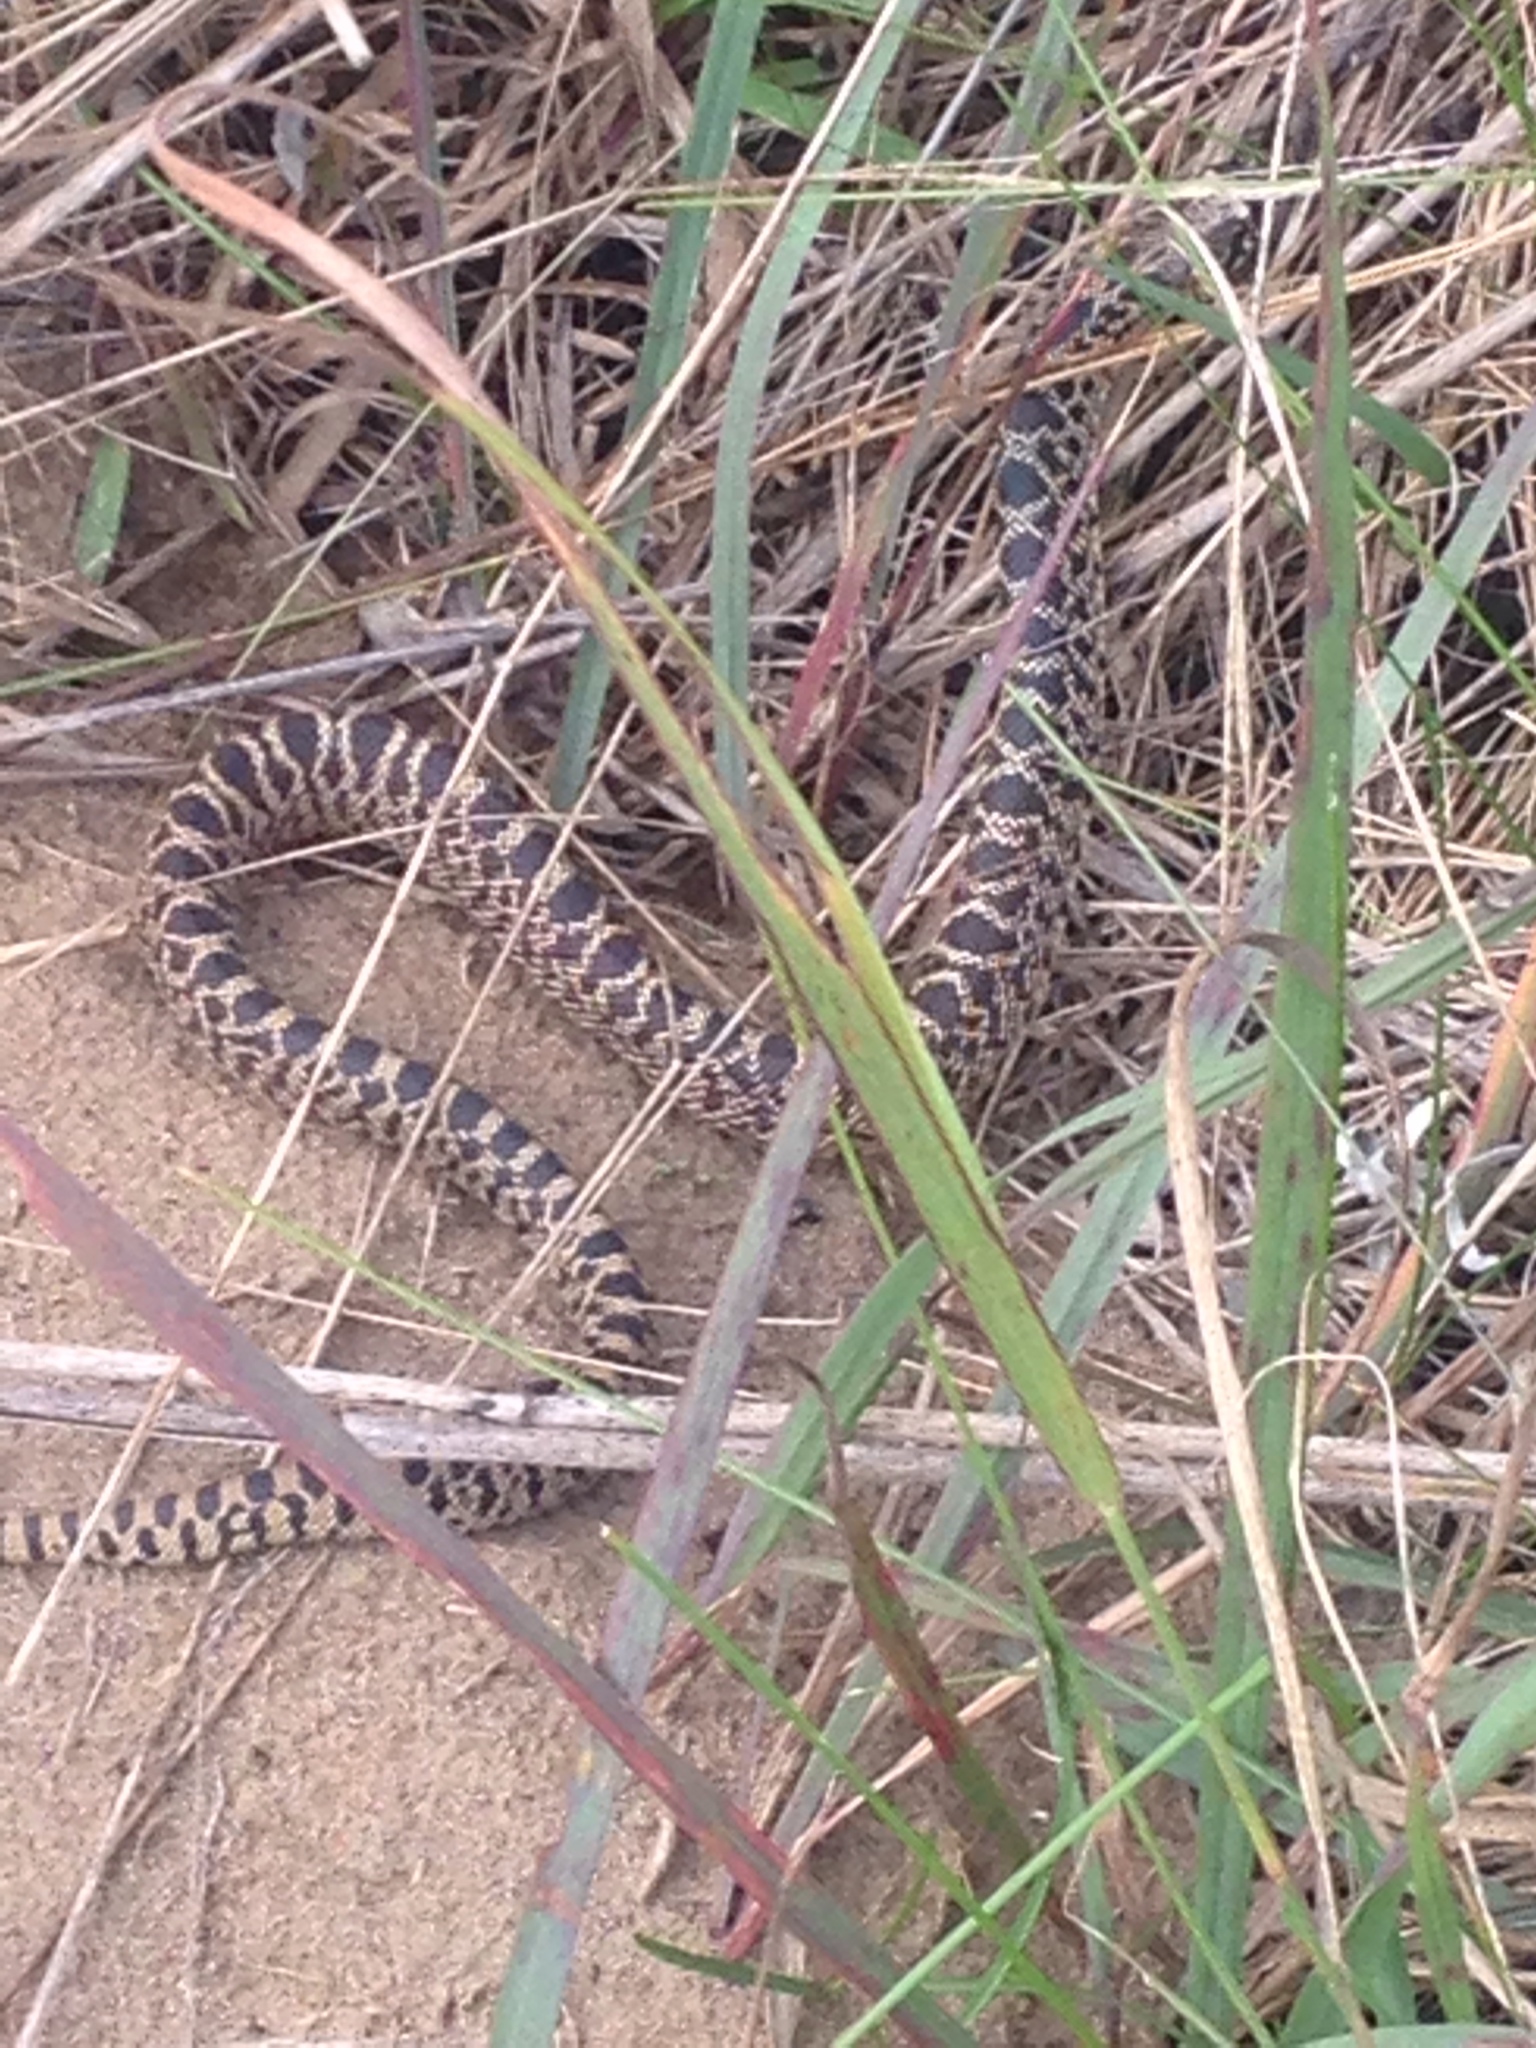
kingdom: Animalia
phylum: Chordata
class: Squamata
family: Colubridae
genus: Pituophis
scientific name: Pituophis catenifer
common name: Gopher snake
